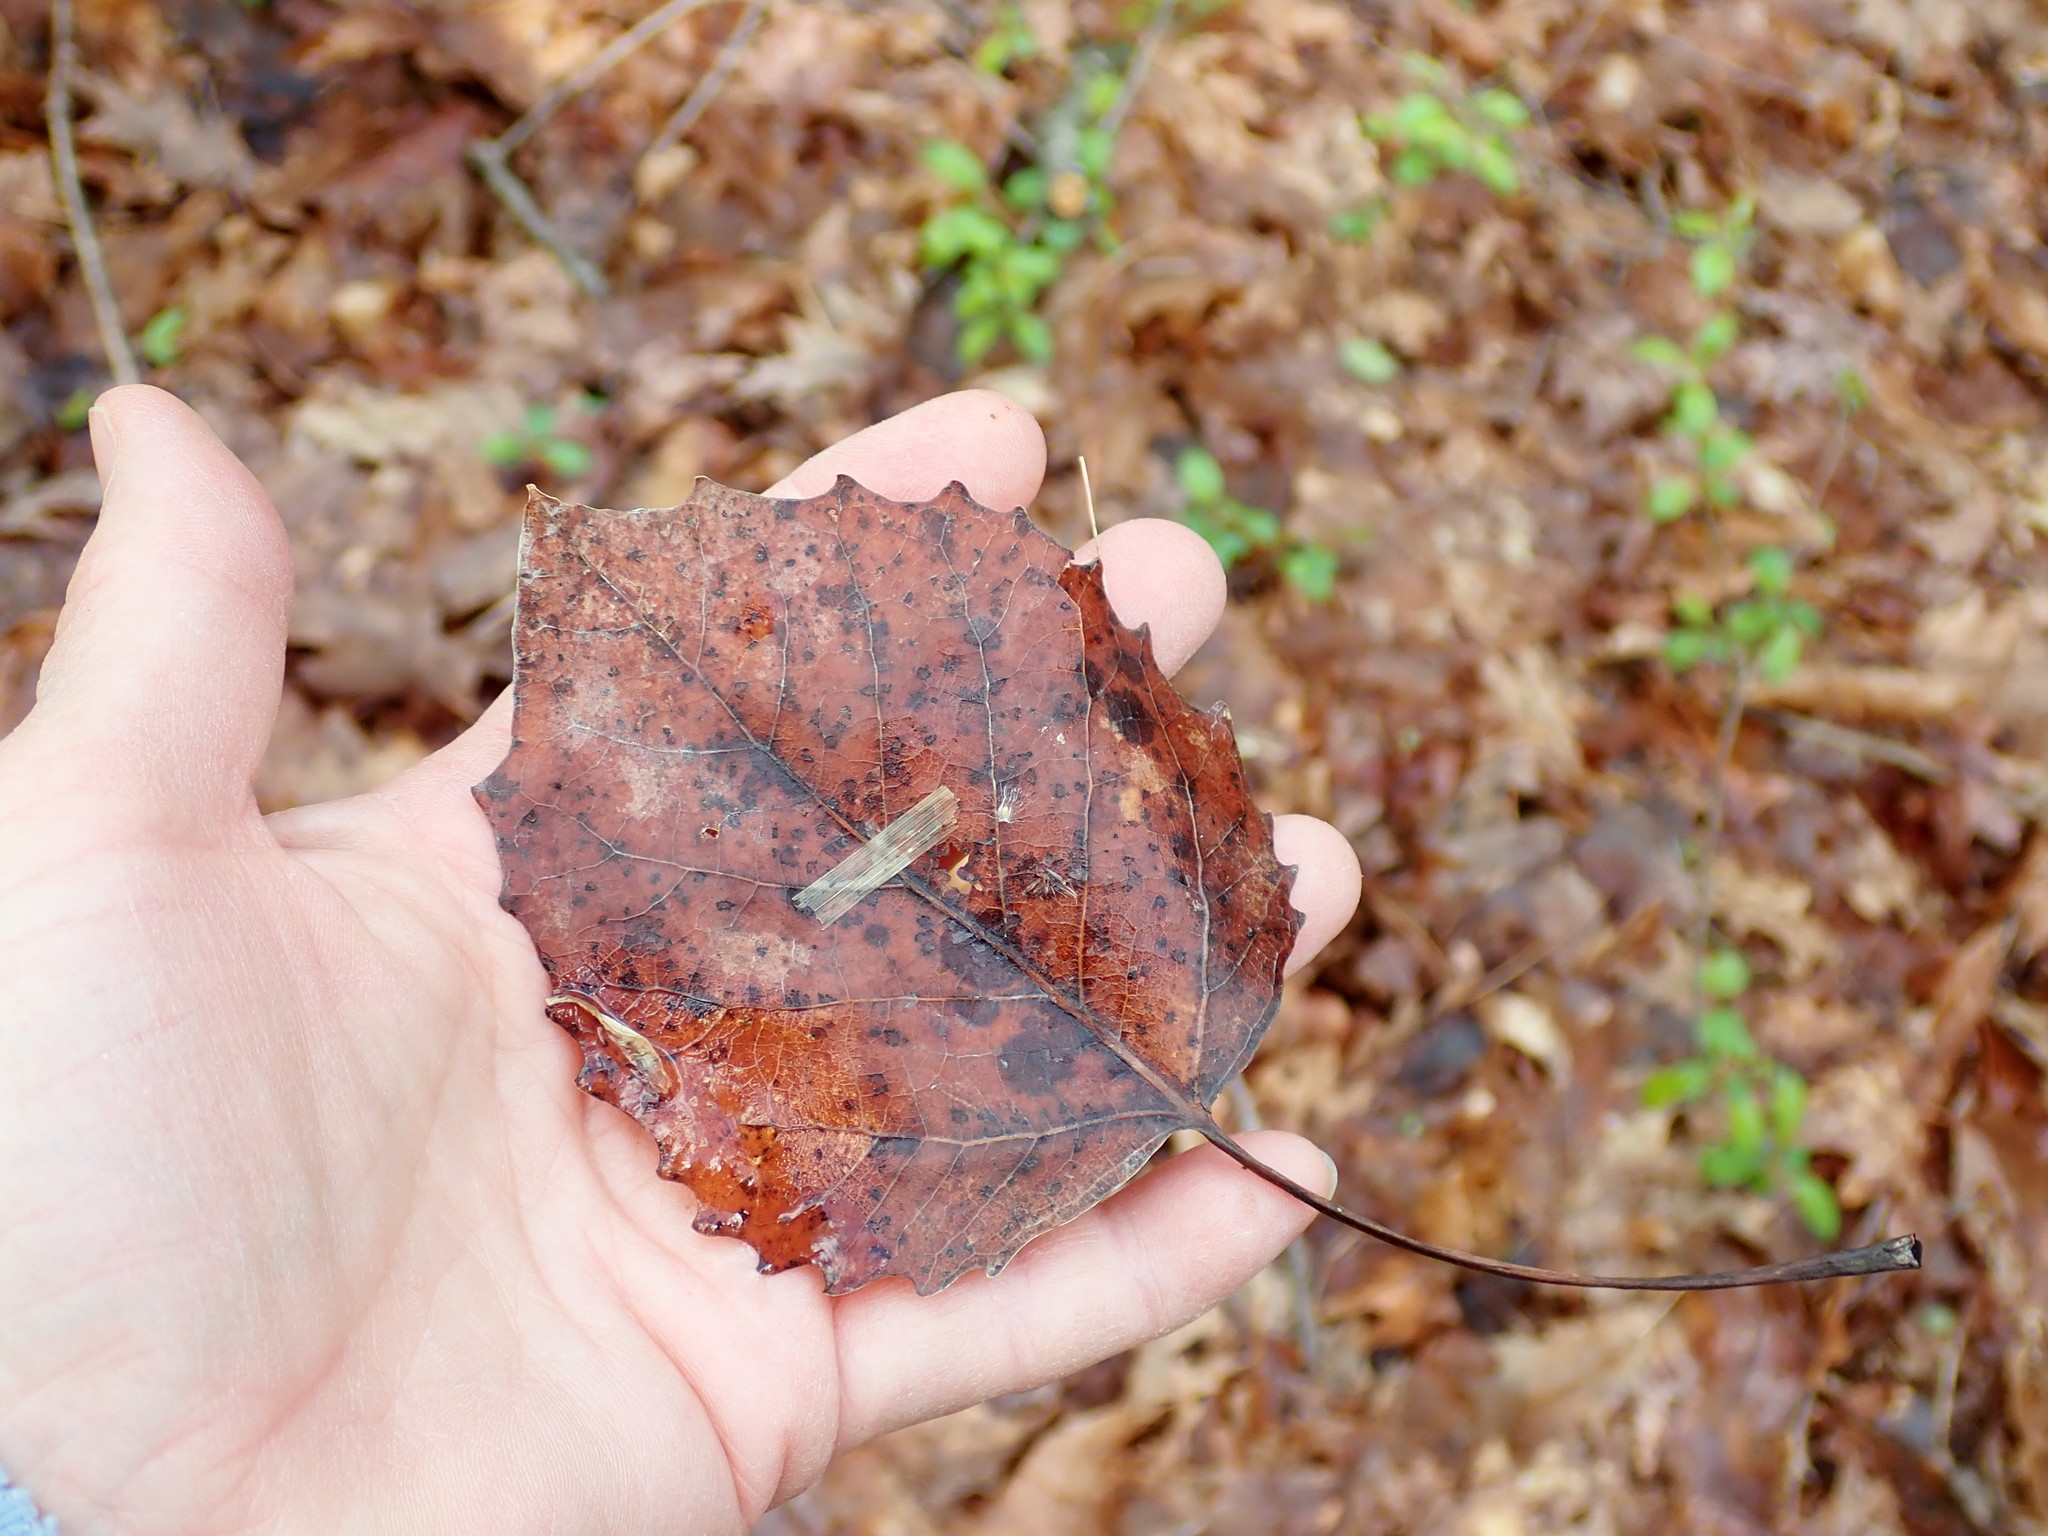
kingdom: Plantae
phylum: Tracheophyta
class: Magnoliopsida
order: Malpighiales
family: Salicaceae
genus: Populus
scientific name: Populus grandidentata
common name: Bigtooth aspen
